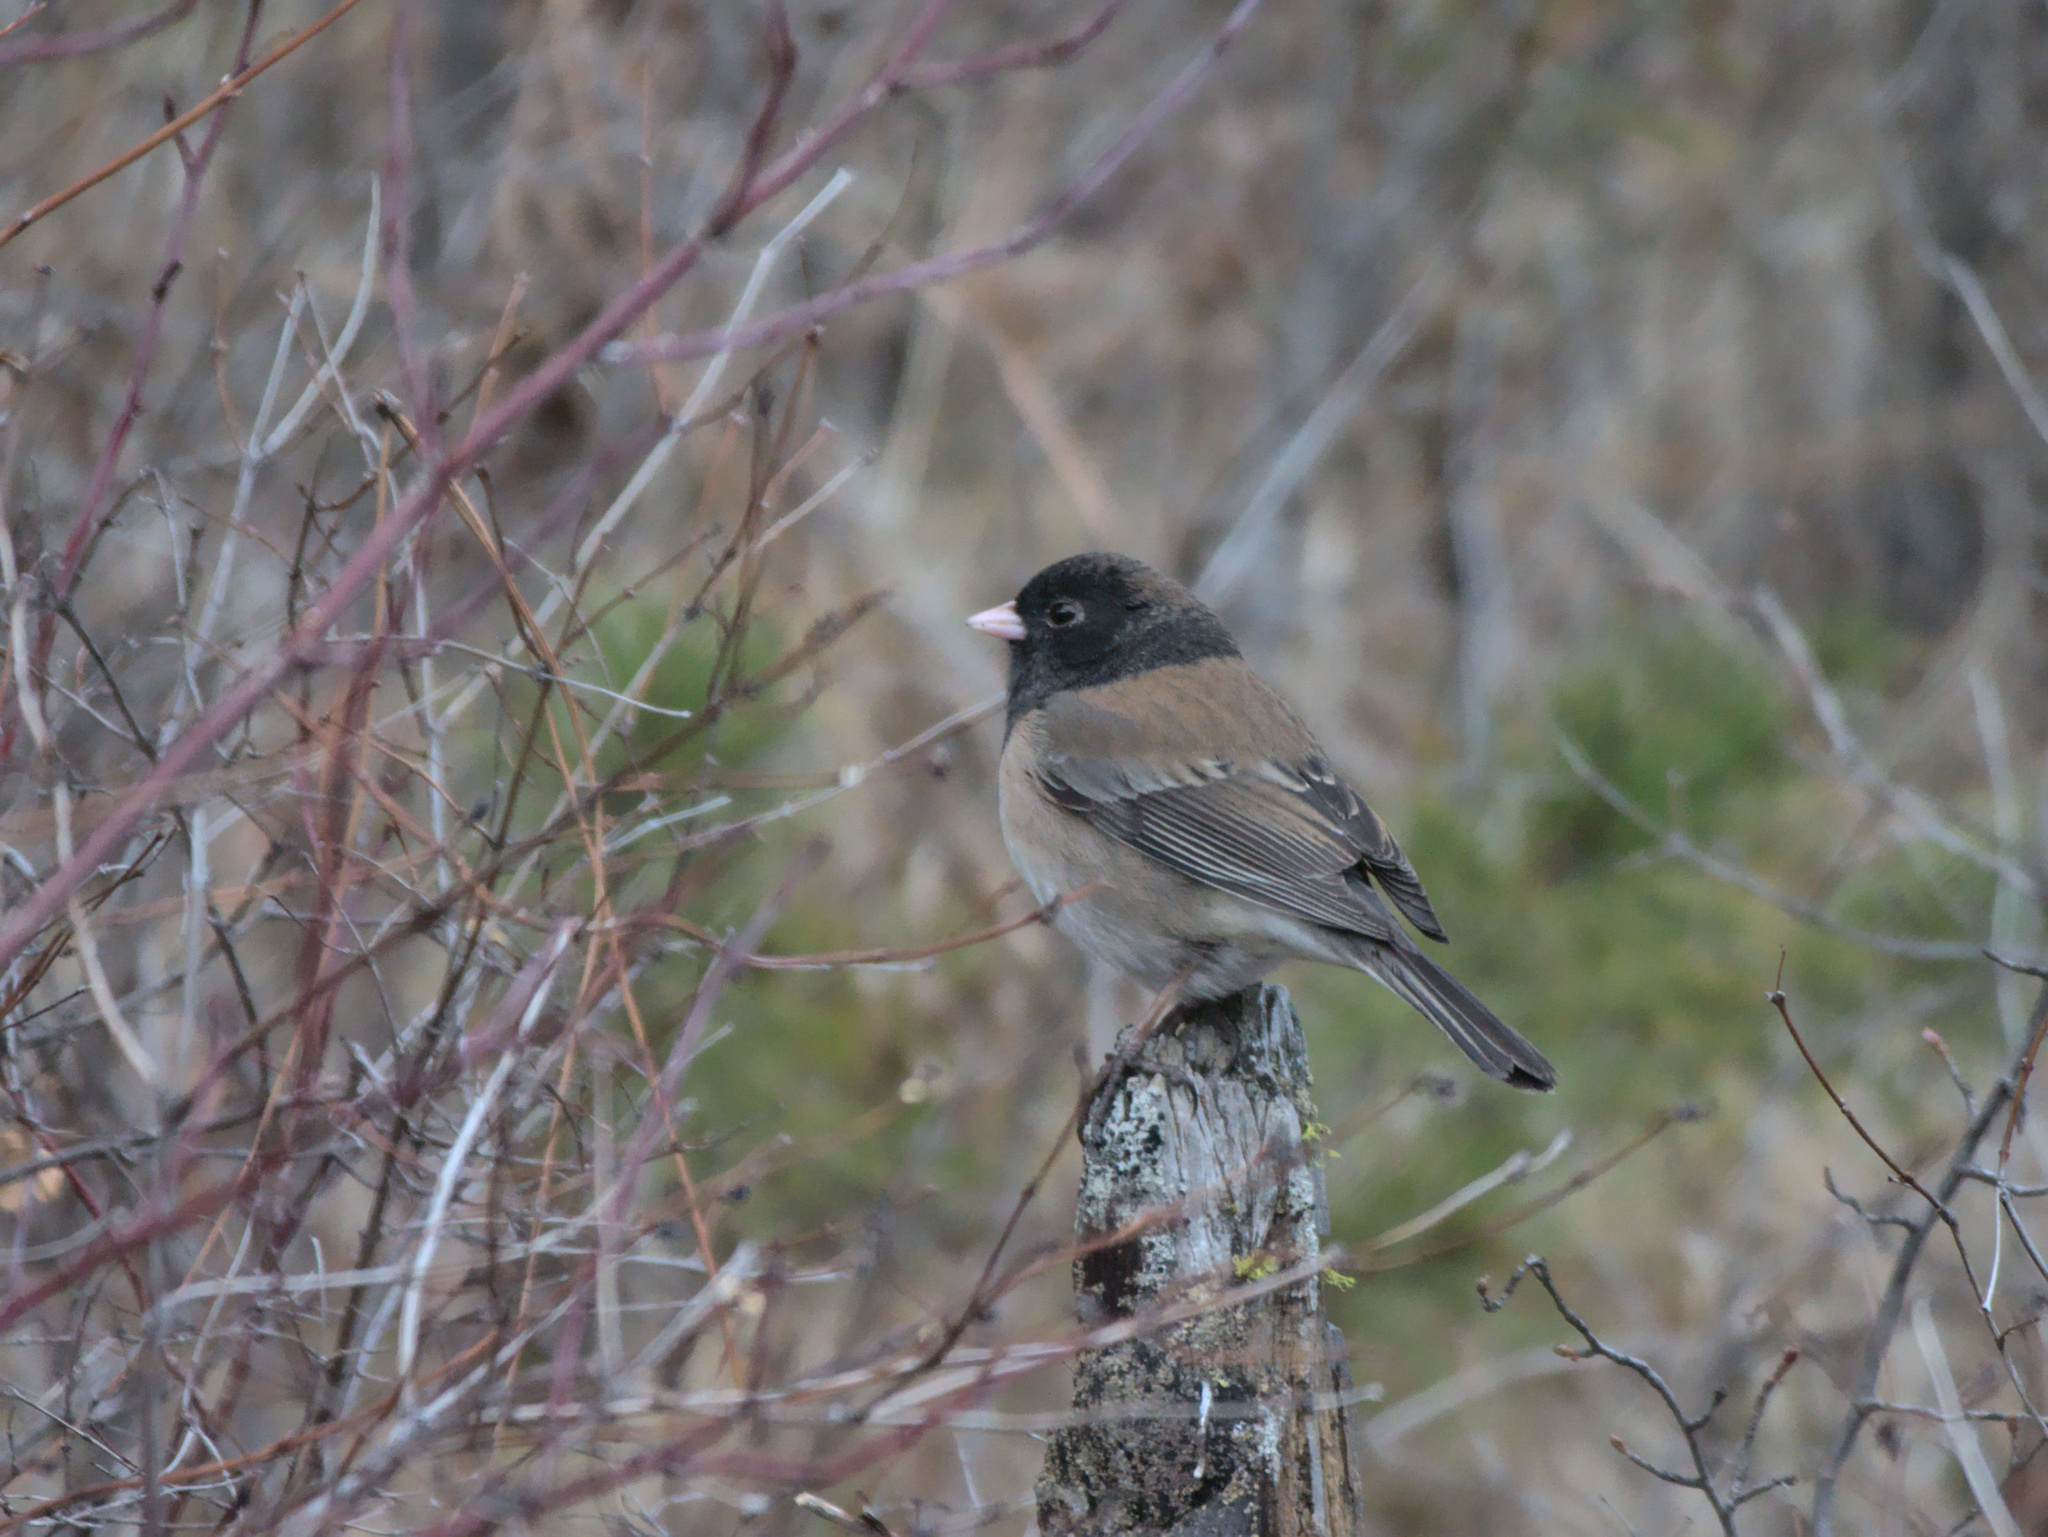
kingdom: Animalia
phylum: Chordata
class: Aves
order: Passeriformes
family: Passerellidae
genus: Junco
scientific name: Junco hyemalis
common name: Dark-eyed junco
